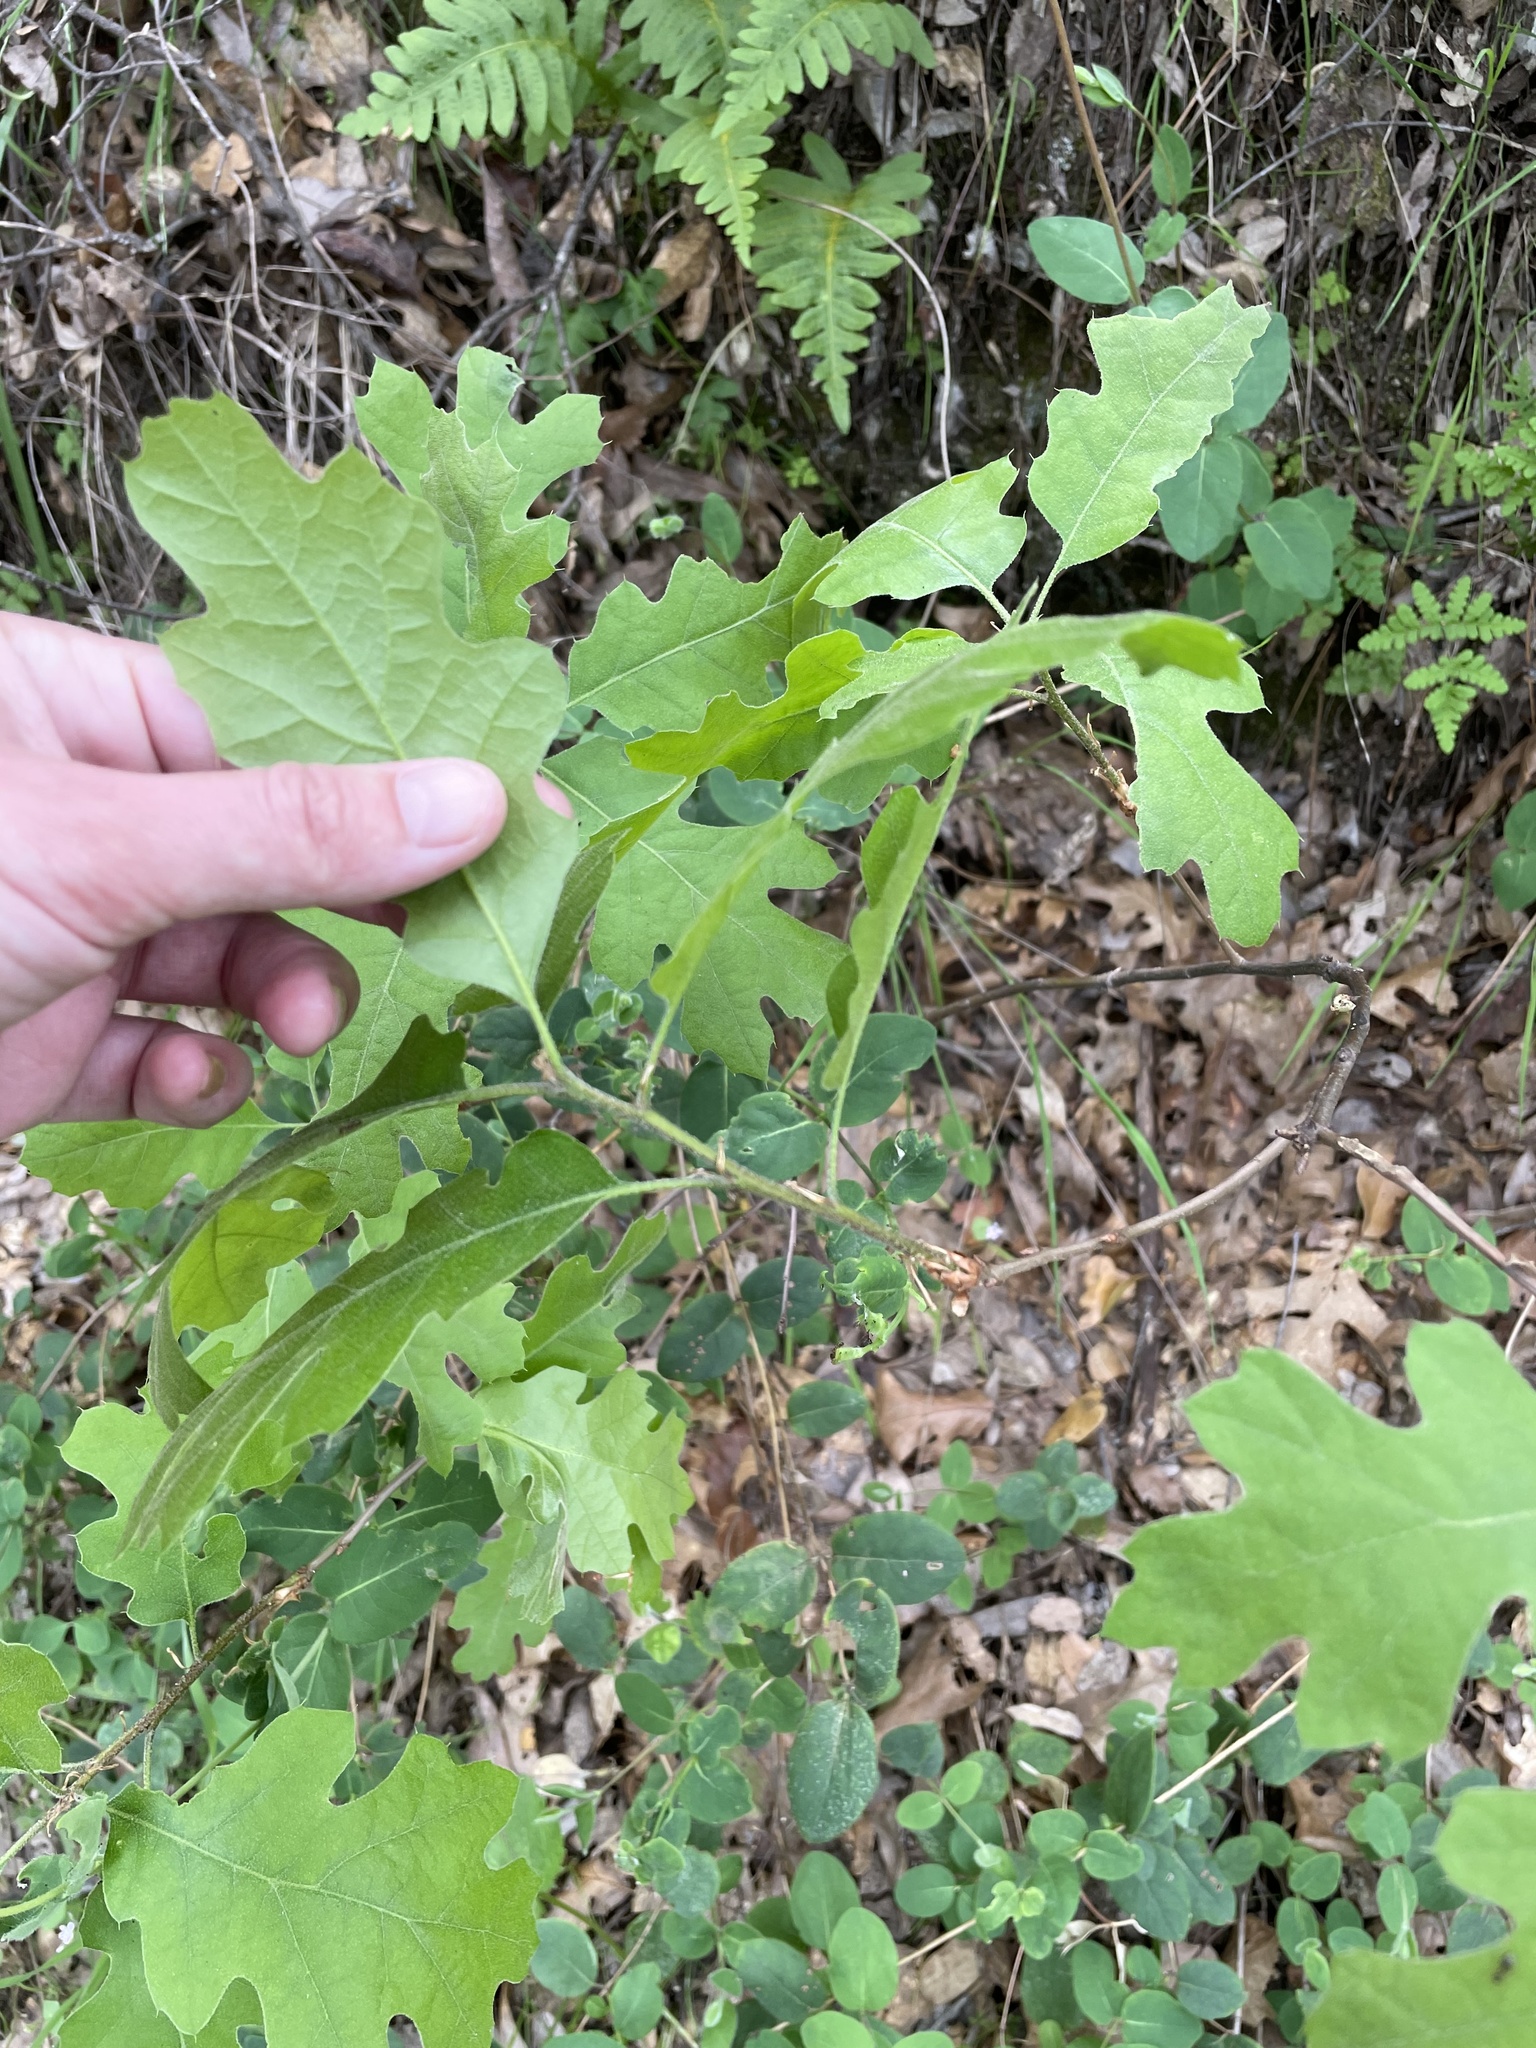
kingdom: Plantae
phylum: Tracheophyta
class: Magnoliopsida
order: Fagales
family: Fagaceae
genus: Quercus
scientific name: Quercus kelloggii
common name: California black oak
